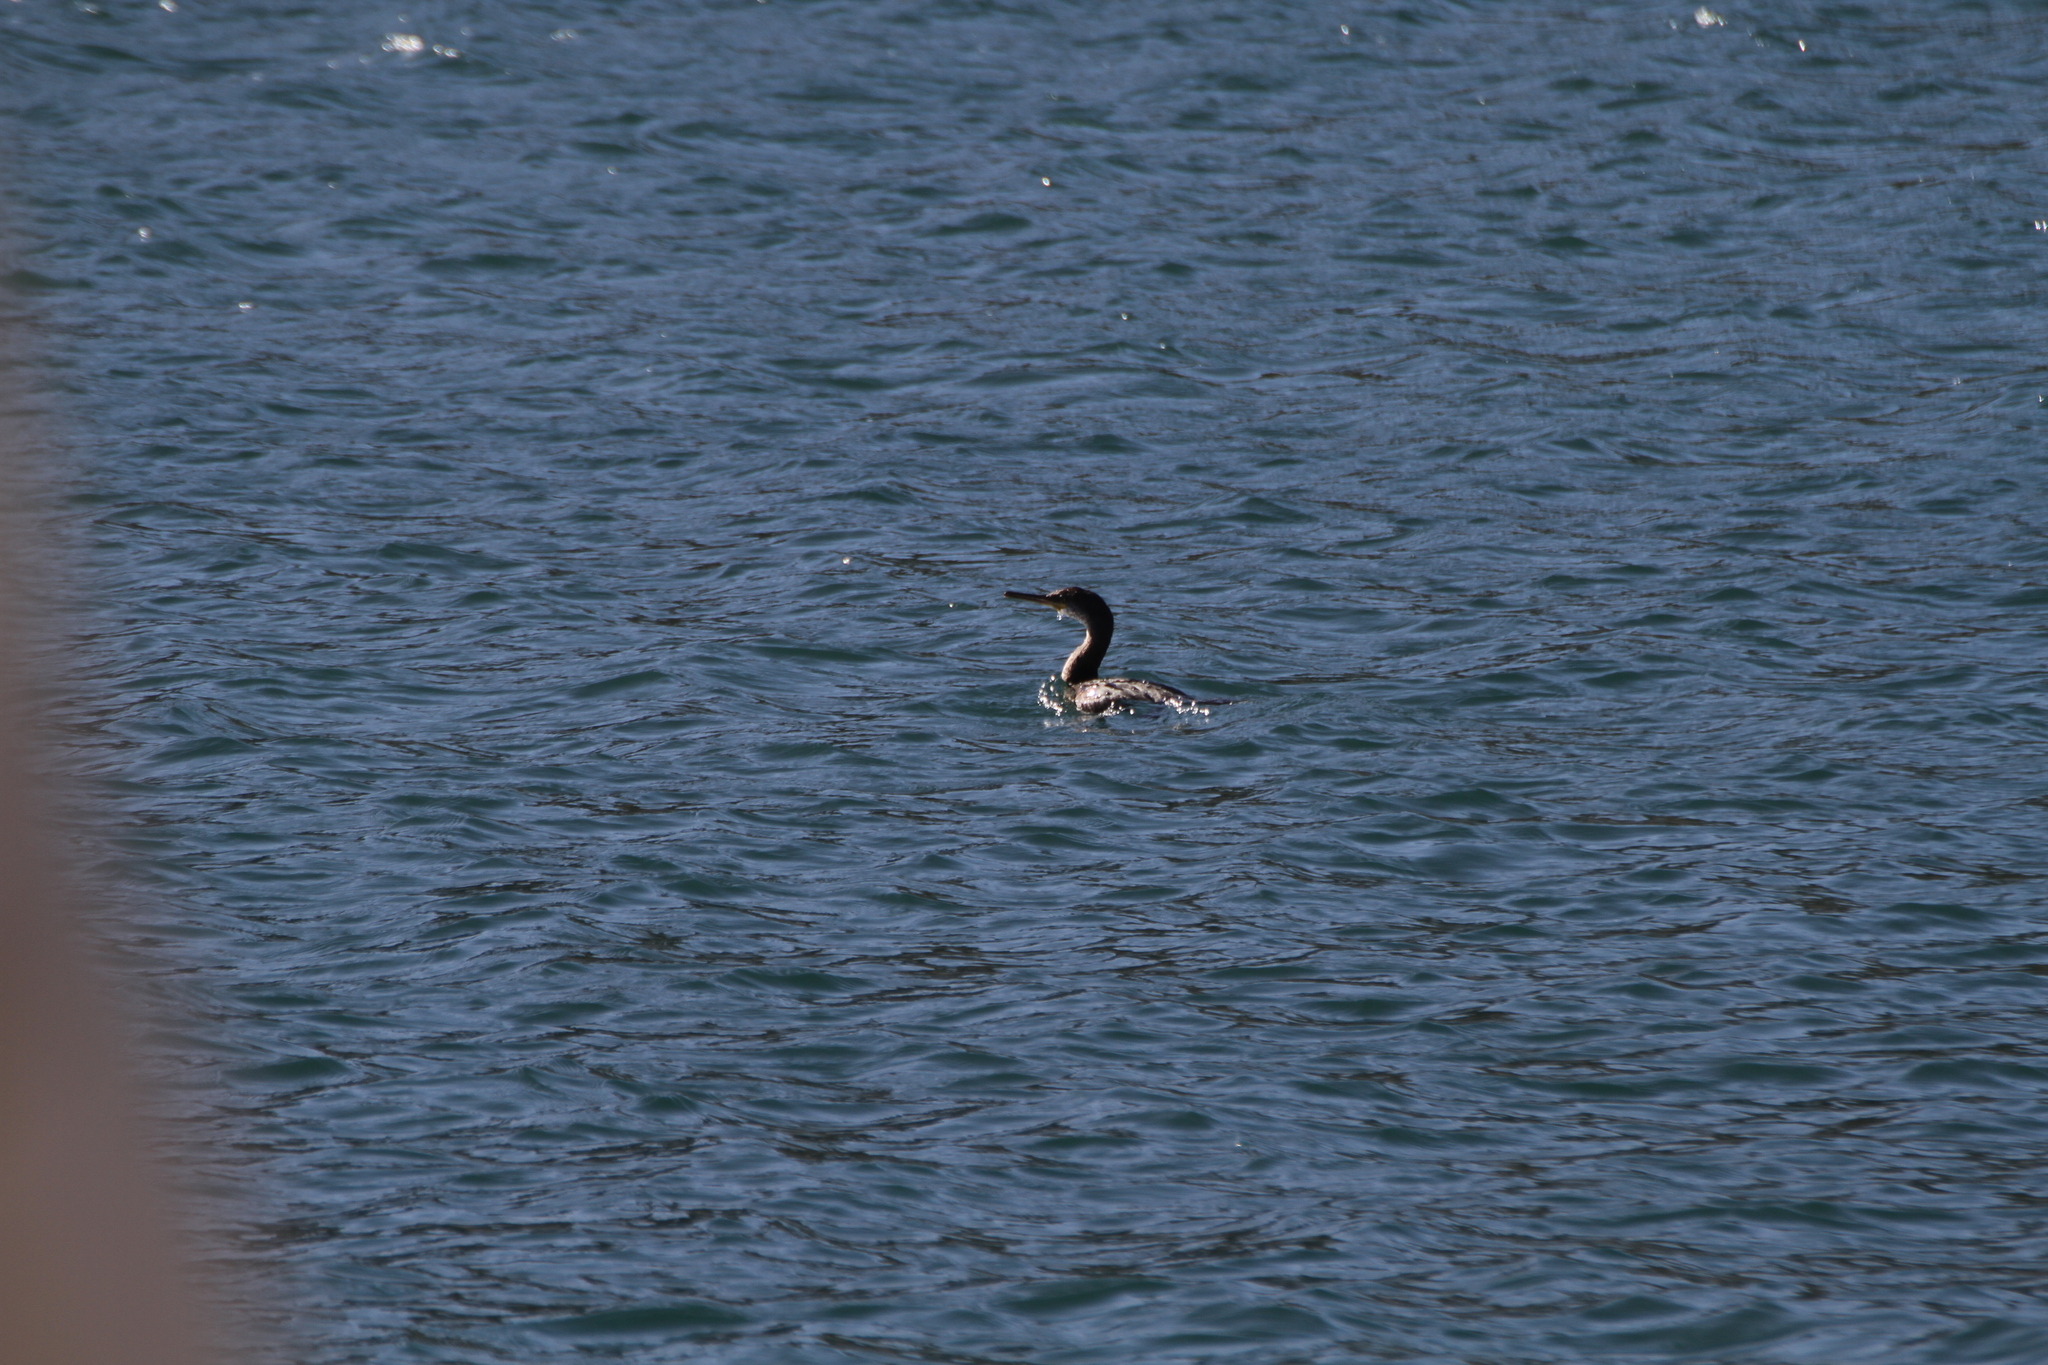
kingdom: Animalia
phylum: Chordata
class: Aves
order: Suliformes
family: Phalacrocoracidae
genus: Phalacrocorax
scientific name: Phalacrocorax aristotelis
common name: European shag
